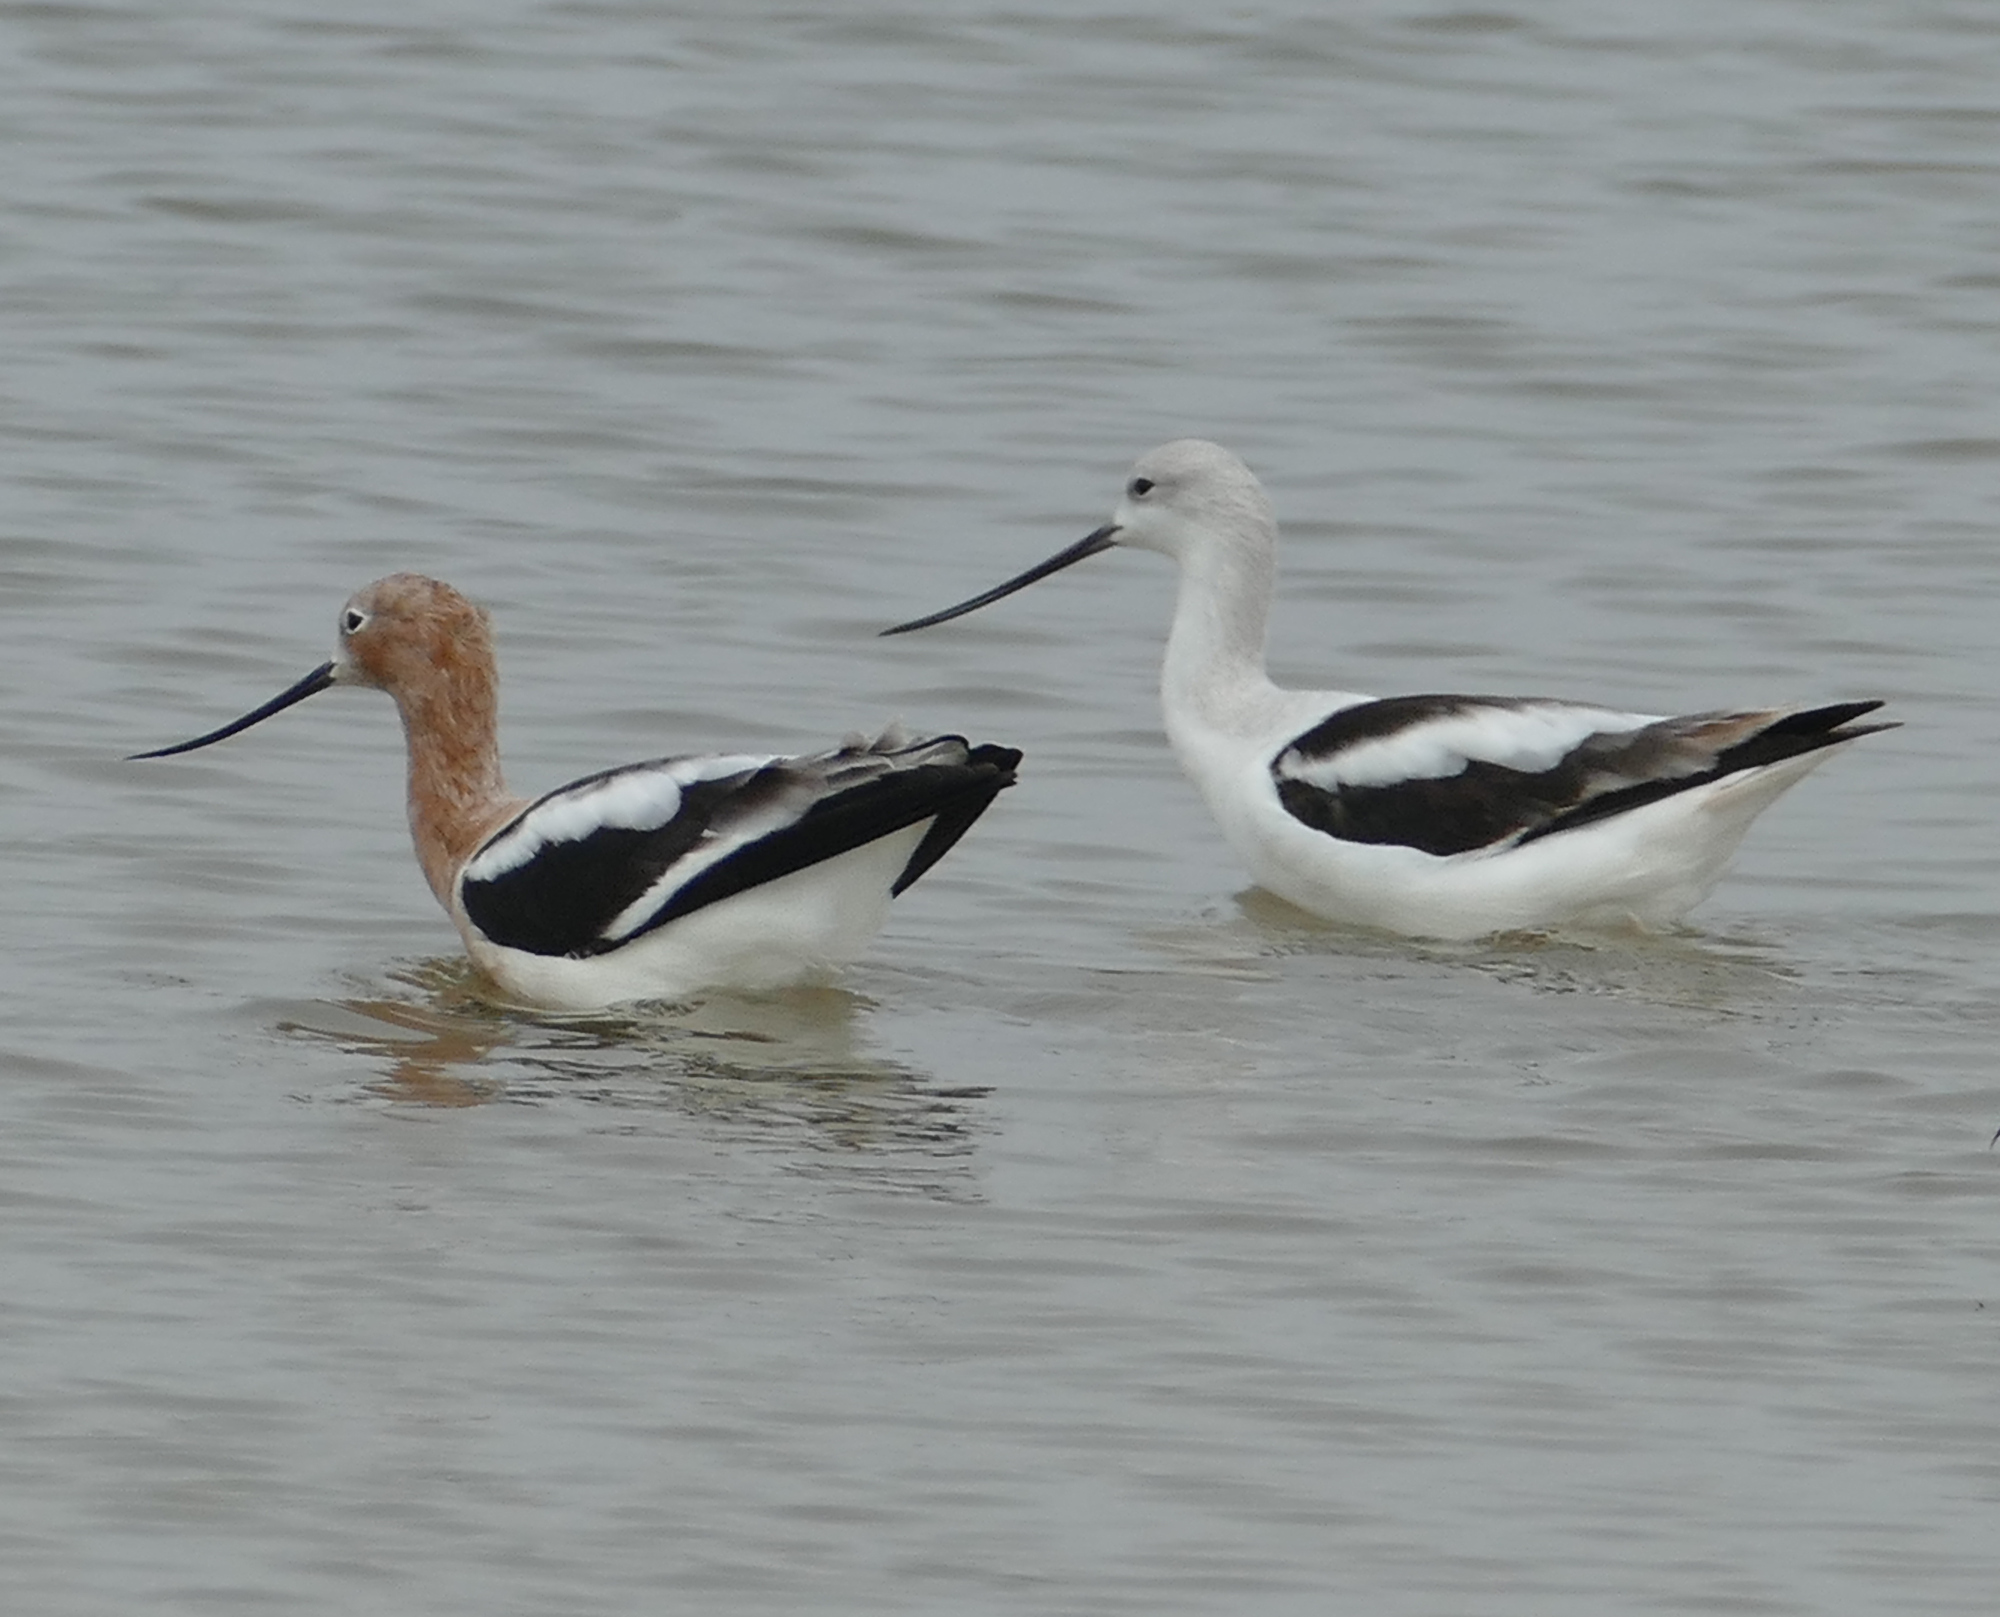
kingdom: Animalia
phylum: Chordata
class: Aves
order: Charadriiformes
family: Recurvirostridae
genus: Recurvirostra
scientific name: Recurvirostra americana
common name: American avocet
